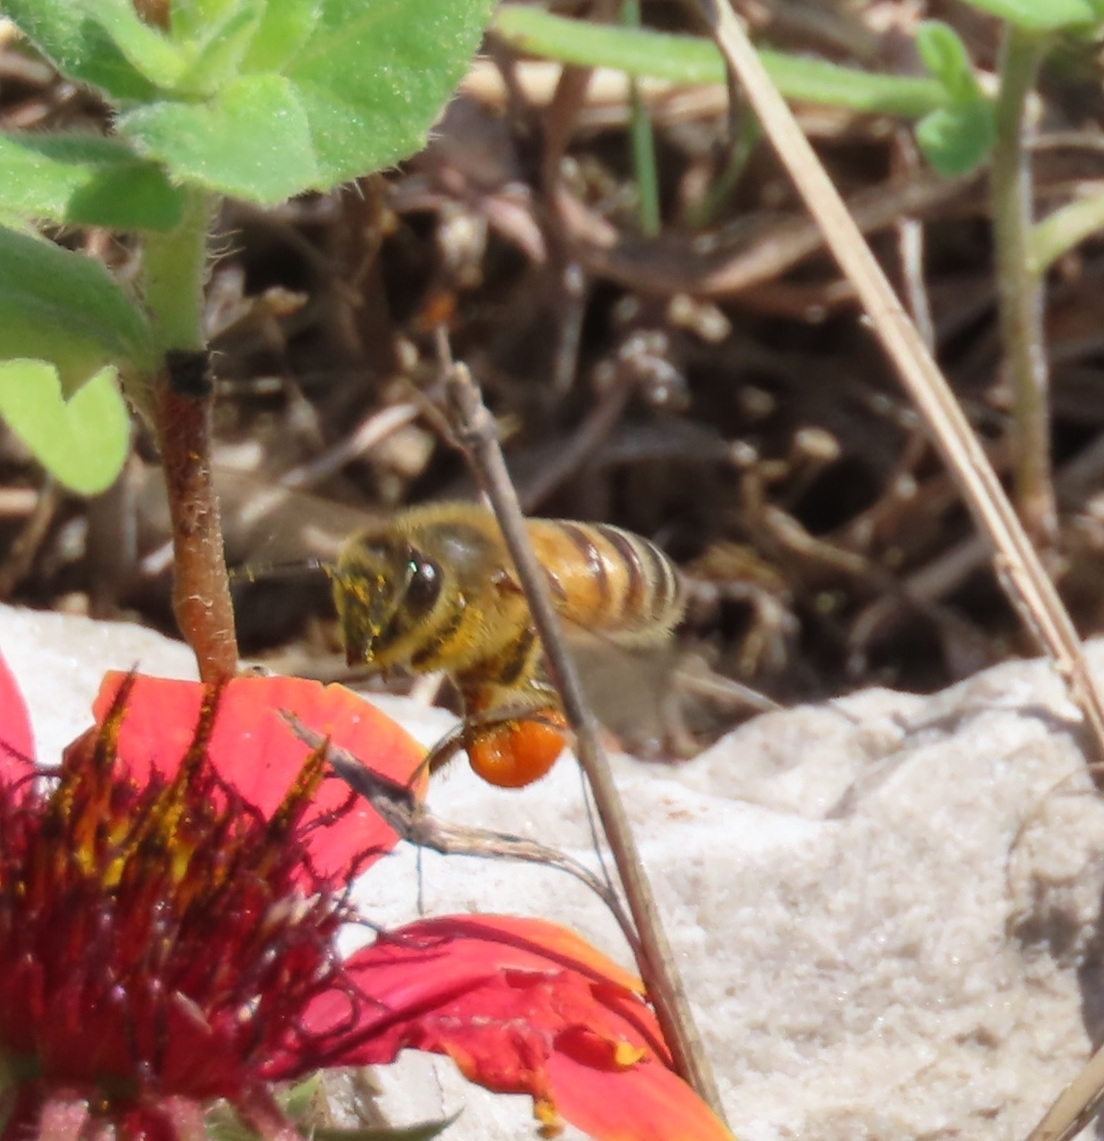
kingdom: Animalia
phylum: Arthropoda
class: Insecta
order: Hymenoptera
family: Apidae
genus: Apis
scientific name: Apis mellifera
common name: Honey bee
